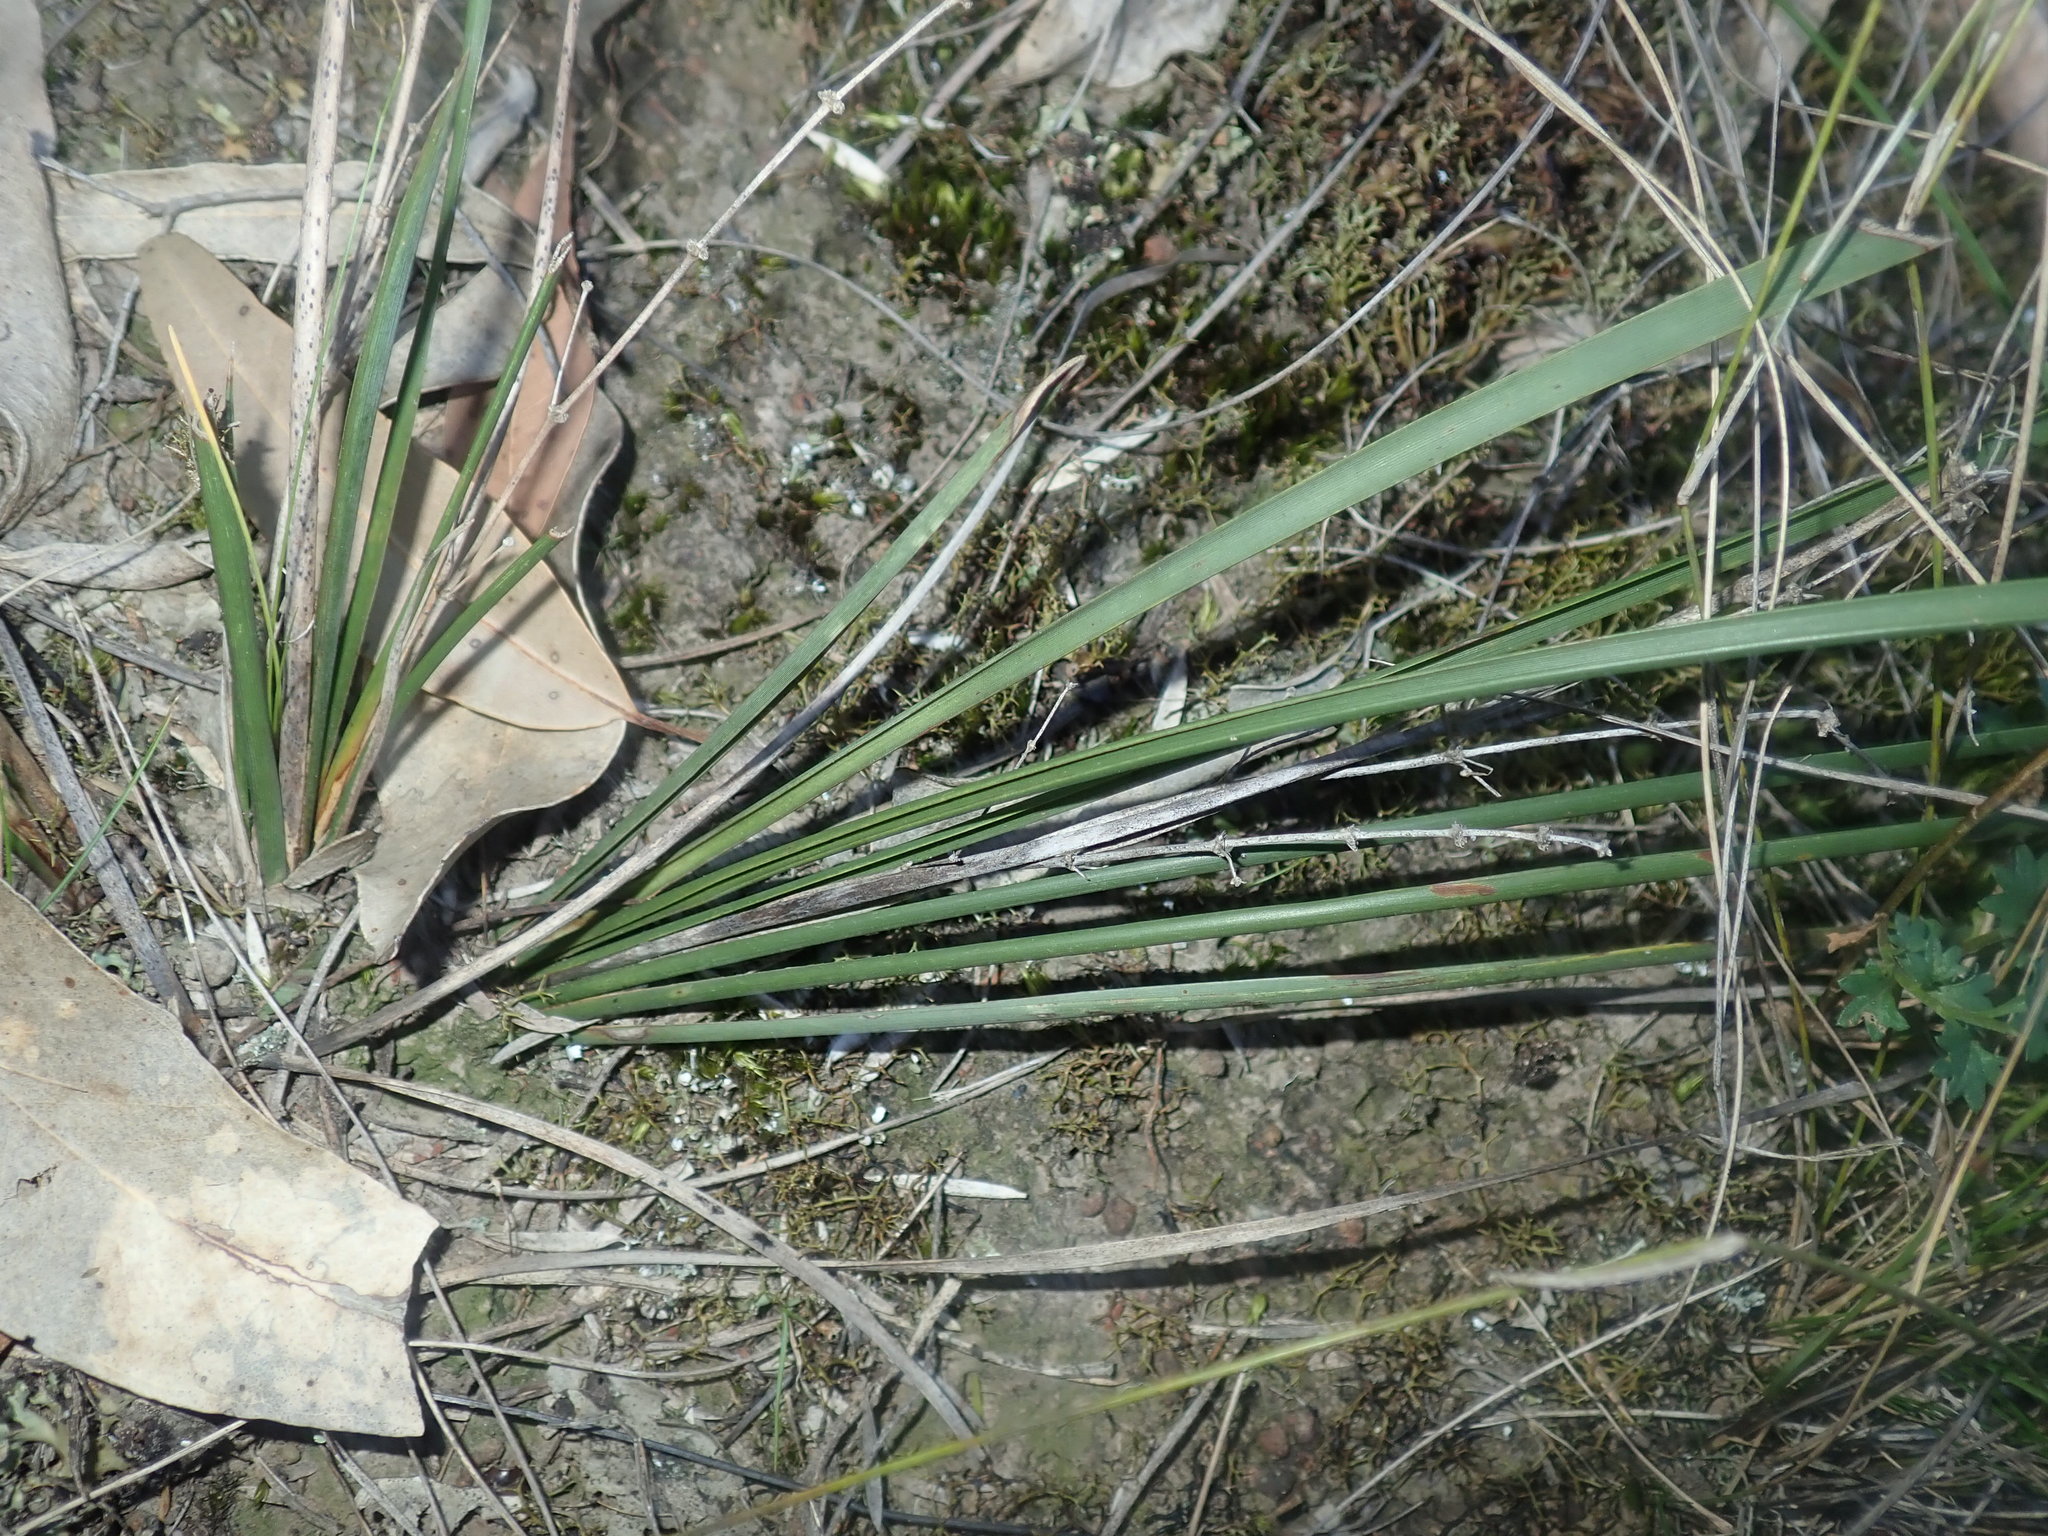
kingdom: Plantae
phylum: Tracheophyta
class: Liliopsida
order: Asparagales
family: Asparagaceae
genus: Lomandra
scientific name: Lomandra multiflora
